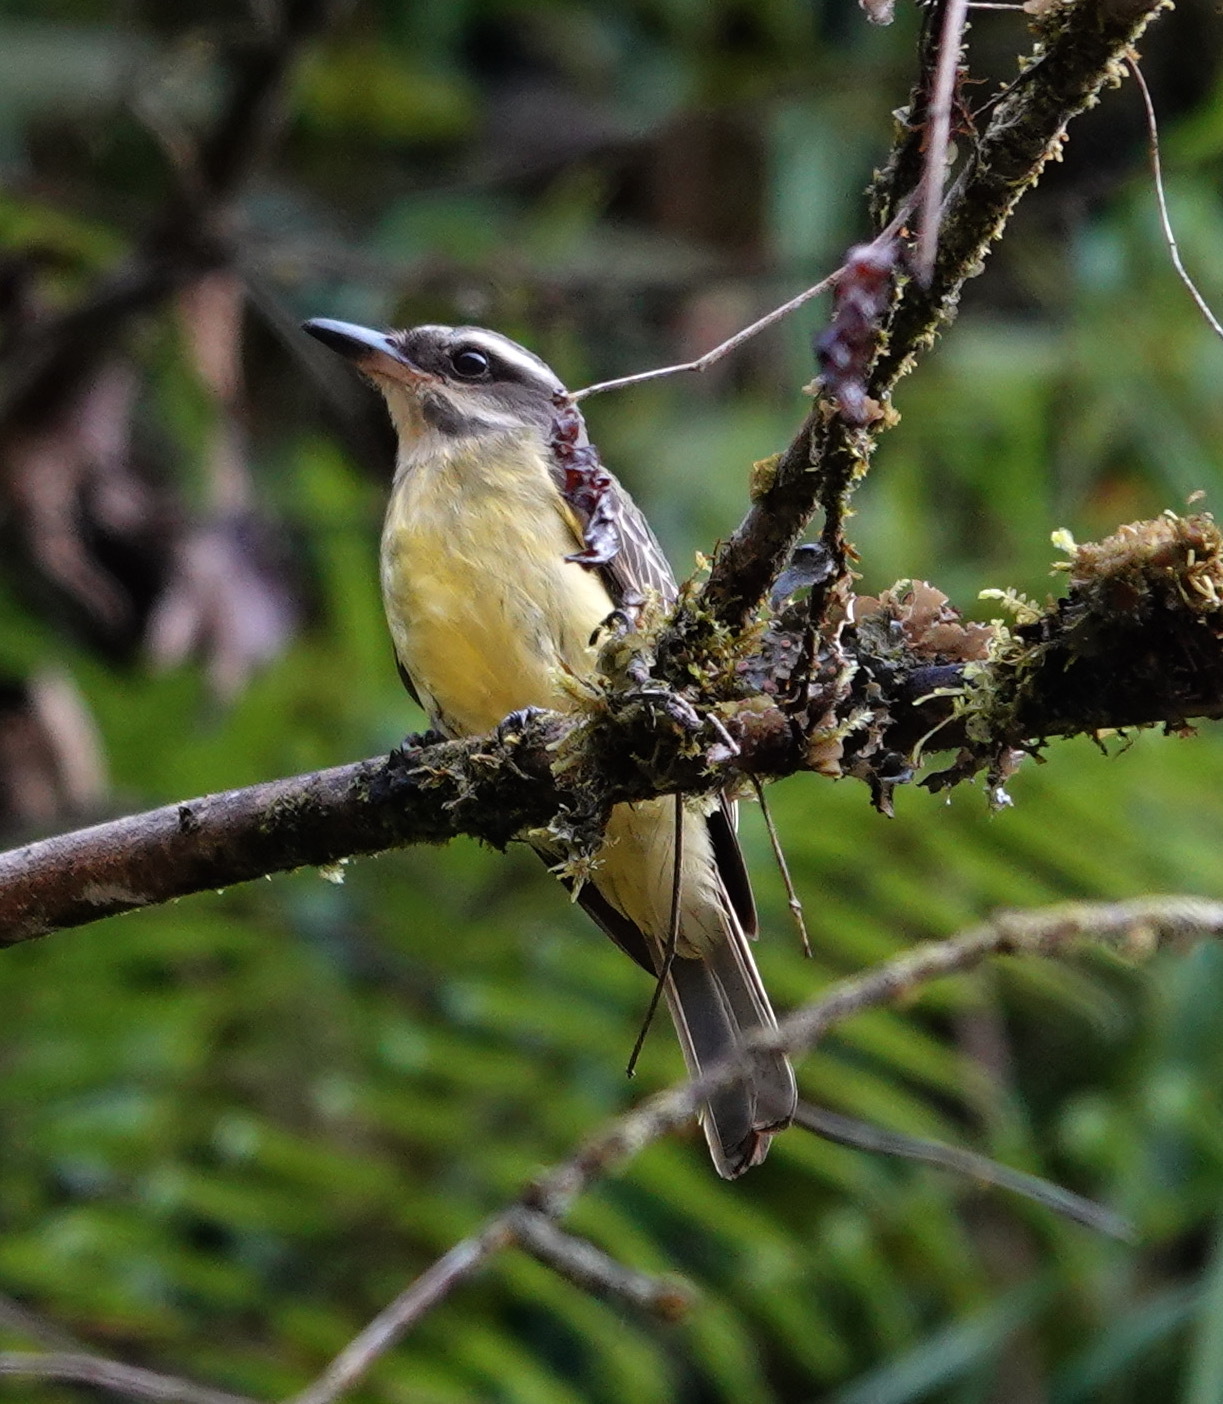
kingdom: Animalia
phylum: Chordata
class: Aves
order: Passeriformes
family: Tyrannidae
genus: Myiodynastes
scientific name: Myiodynastes chrysocephalus
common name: Golden-crowned flycatcher
